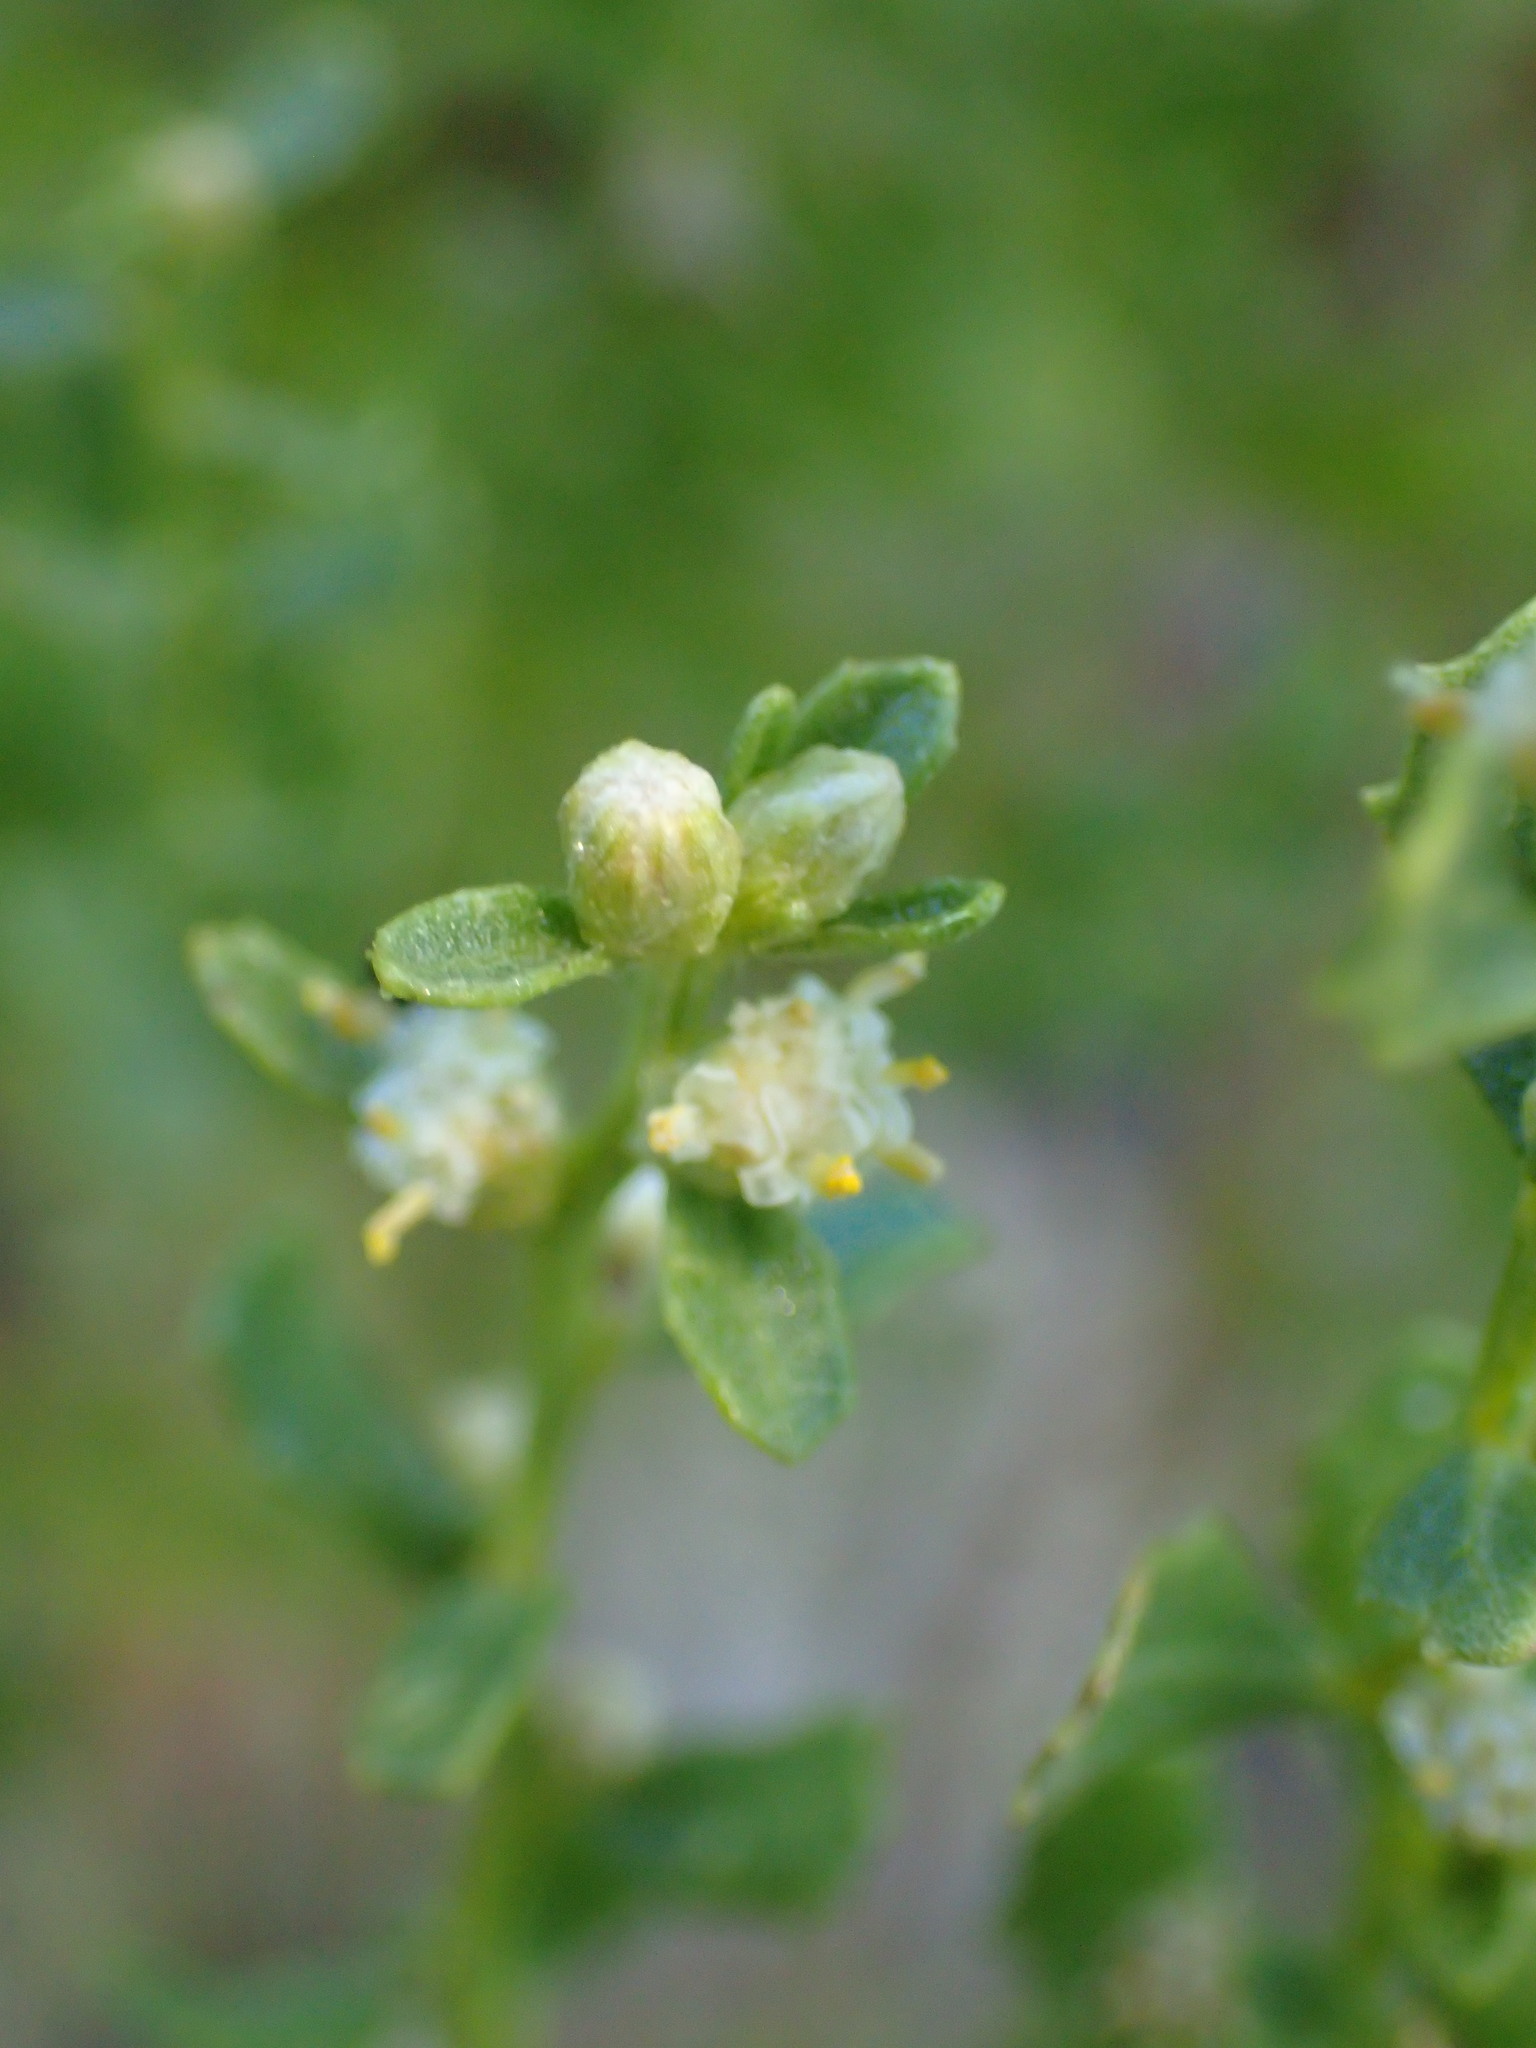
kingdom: Plantae
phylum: Tracheophyta
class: Magnoliopsida
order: Asterales
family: Asteraceae
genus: Baccharis
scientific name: Baccharis pilularis
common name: Coyotebrush
